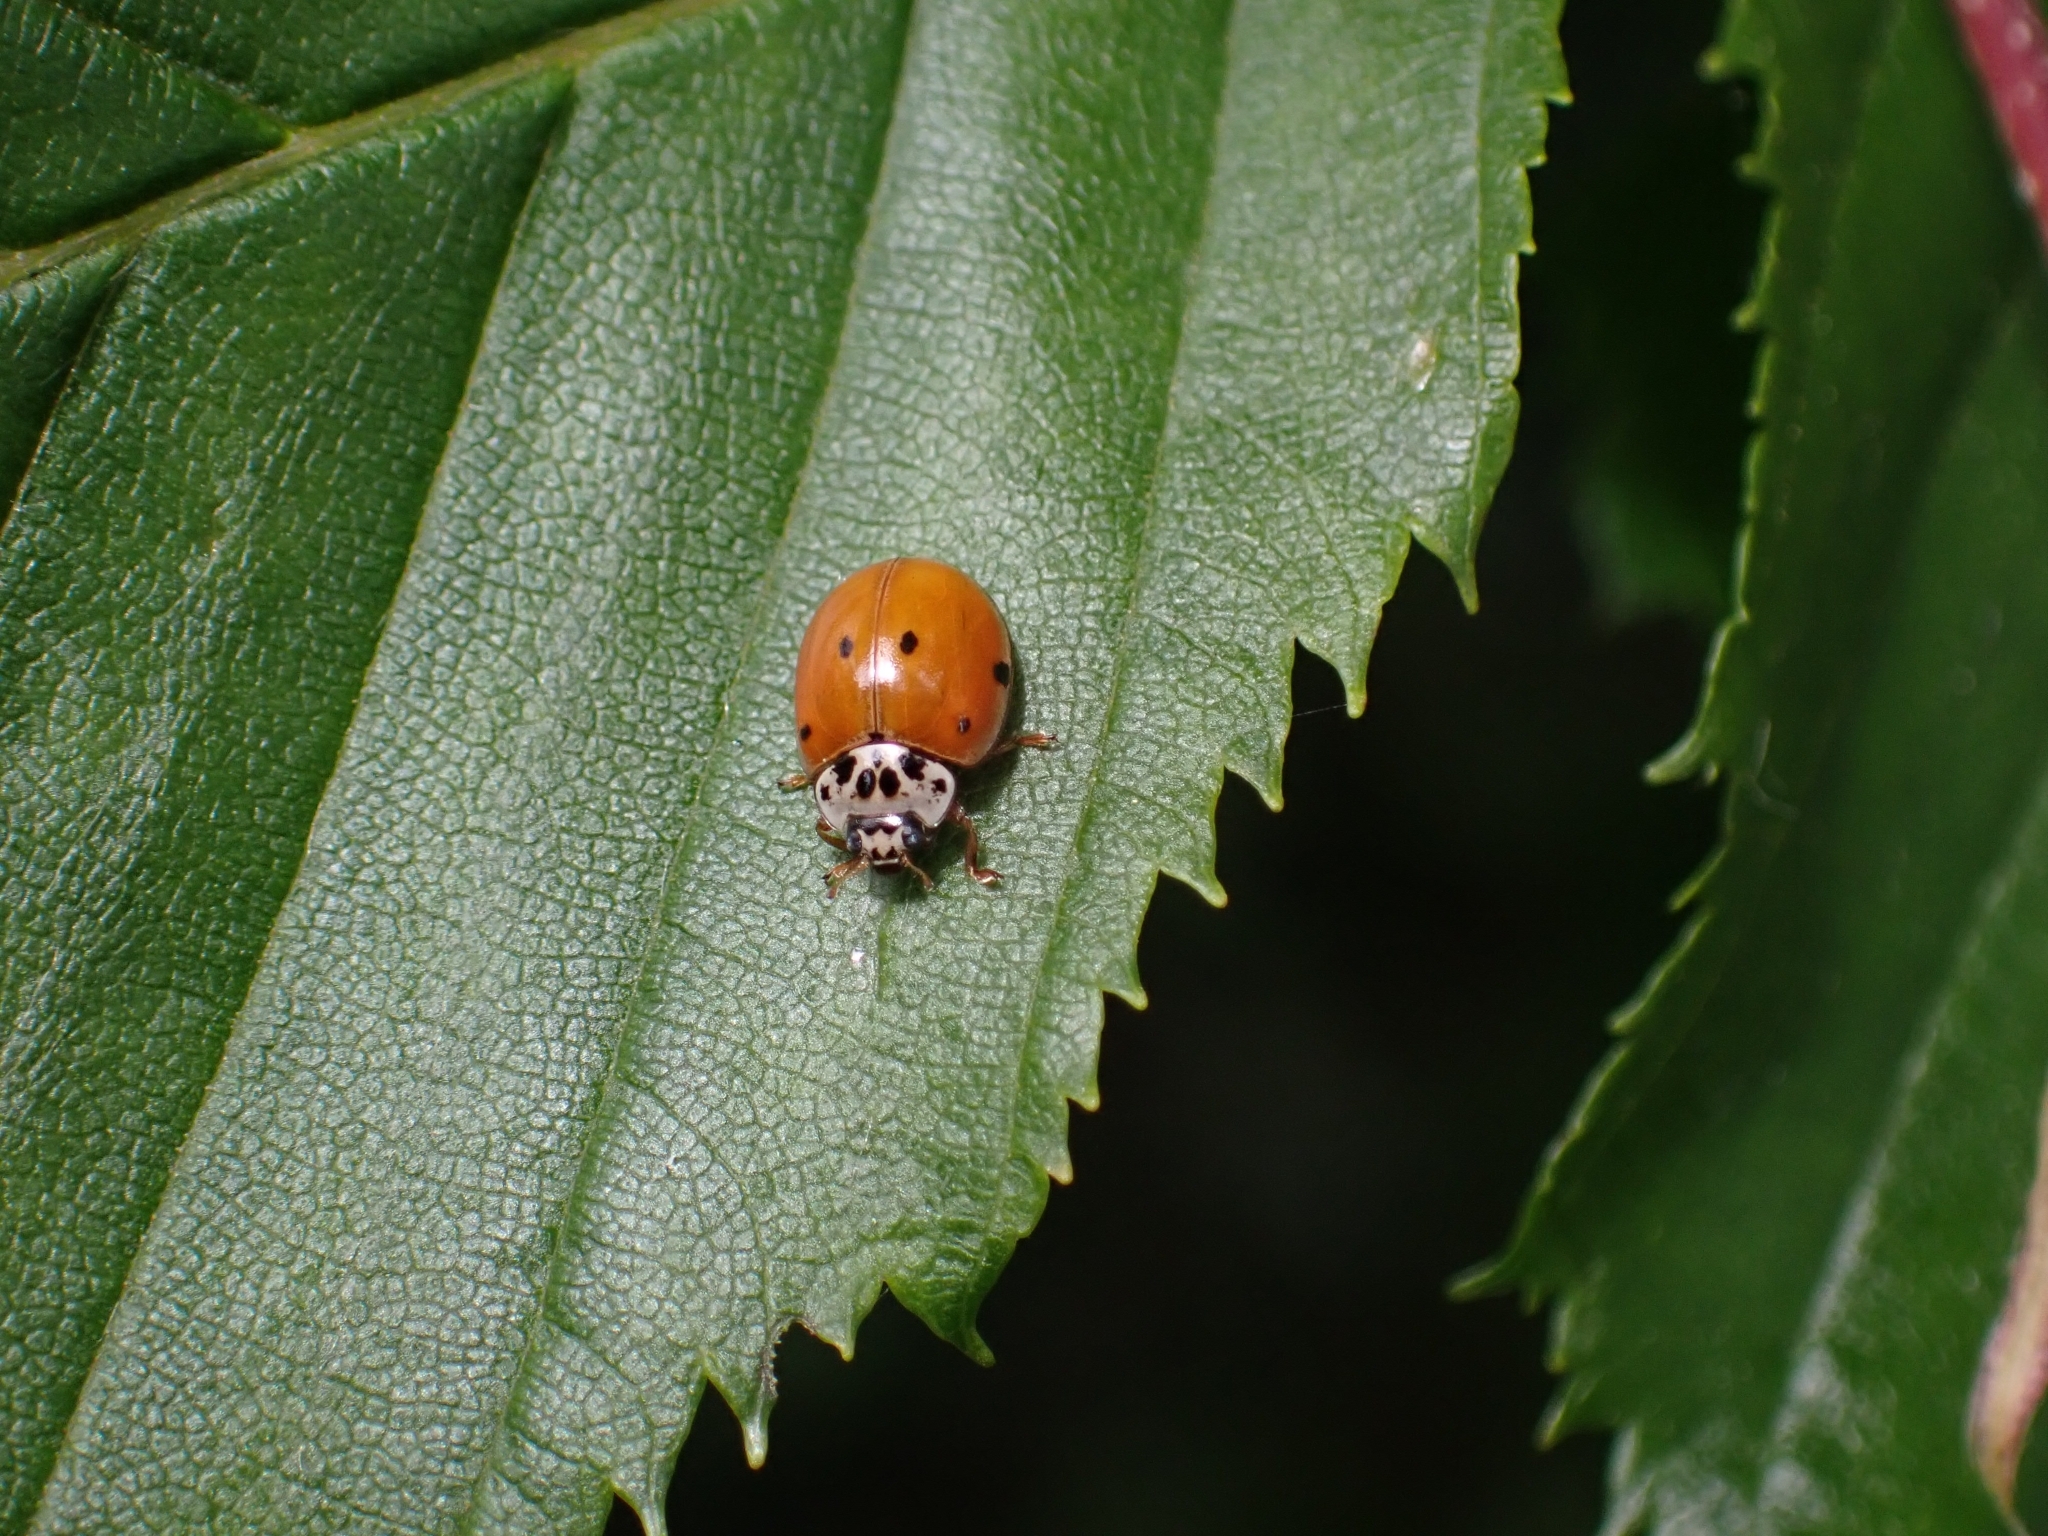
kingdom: Animalia
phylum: Arthropoda
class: Insecta
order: Coleoptera
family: Coccinellidae
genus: Adalia
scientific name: Adalia decempunctata
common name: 10-spot ladybird
